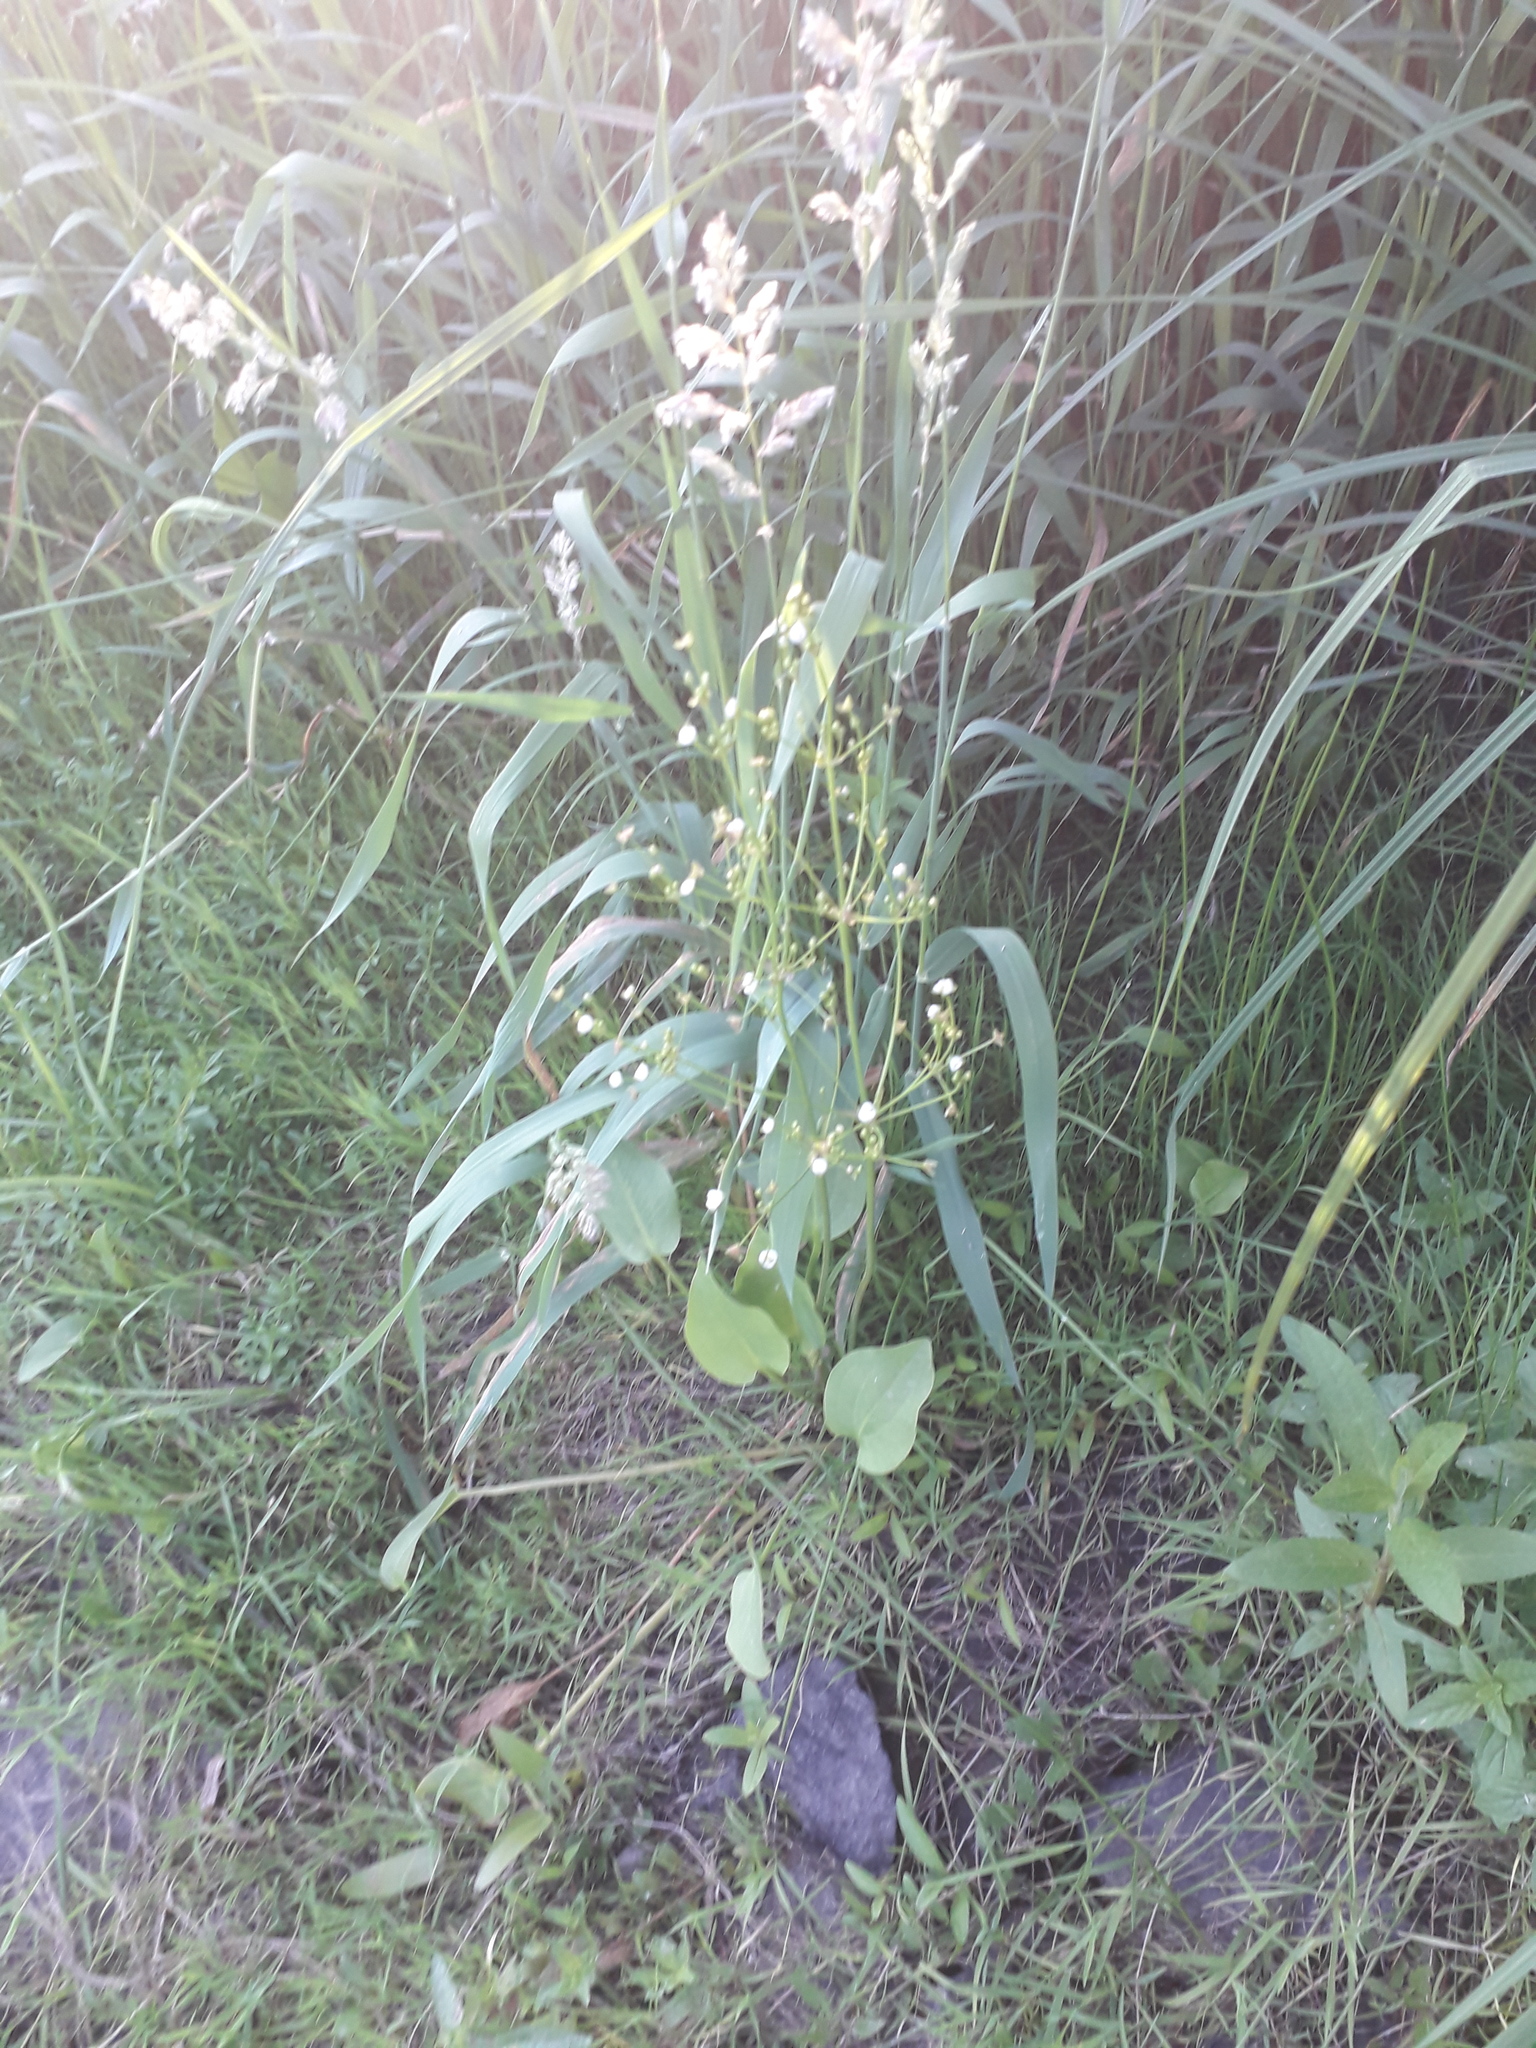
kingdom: Plantae
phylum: Tracheophyta
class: Liliopsida
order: Alismatales
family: Alismataceae
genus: Alisma
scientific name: Alisma plantago-aquatica
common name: Water-plantain
